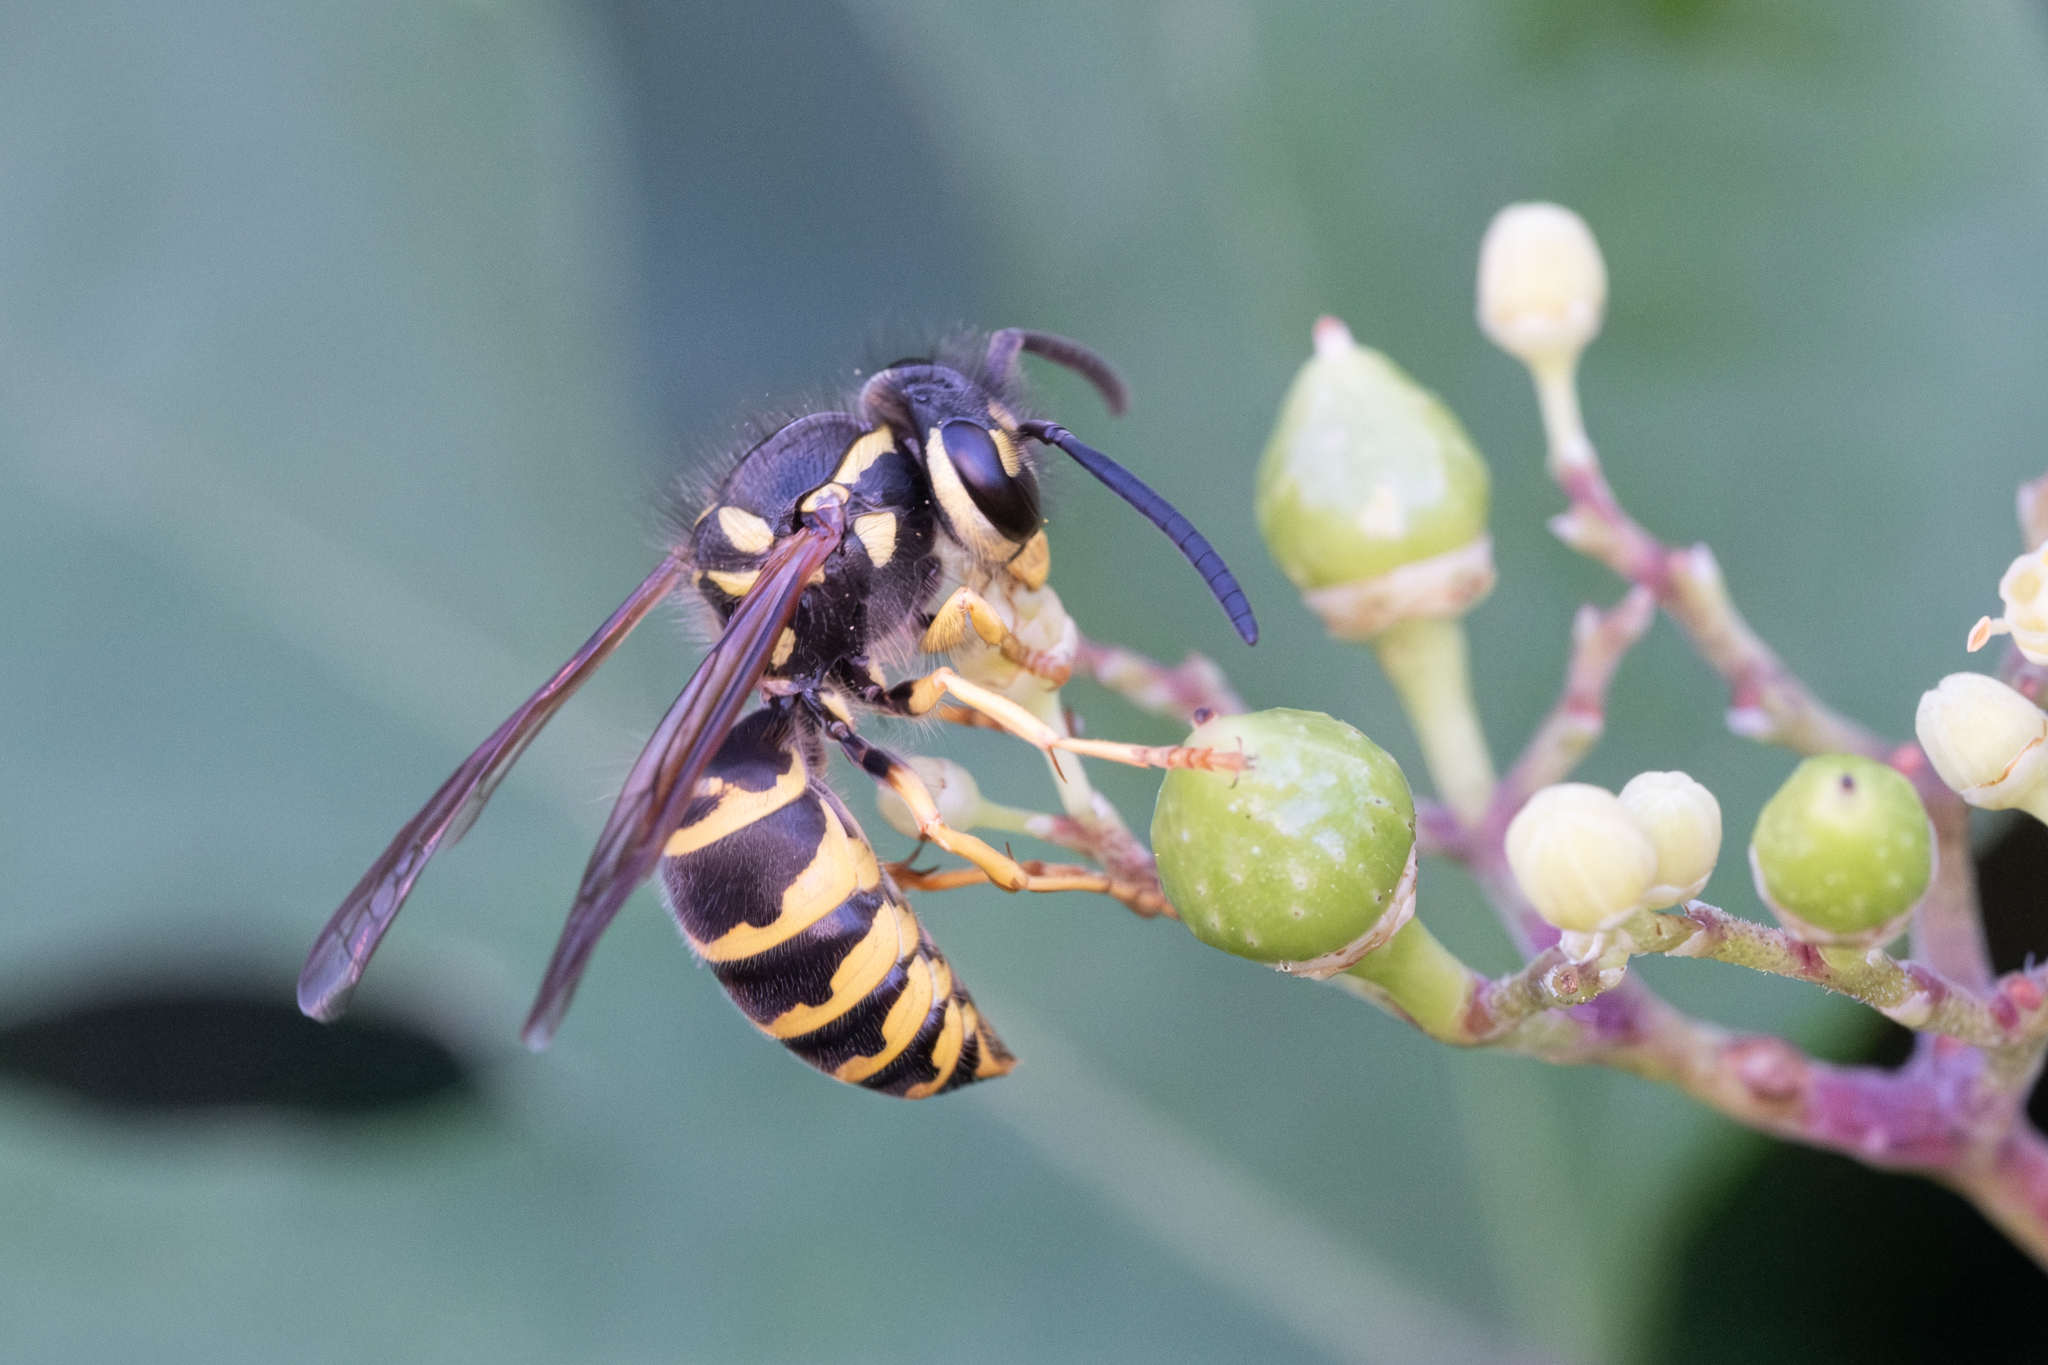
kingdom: Animalia
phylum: Arthropoda
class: Insecta
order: Hymenoptera
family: Vespidae
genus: Vespula
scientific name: Vespula maculifrons
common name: Eastern yellowjacket
